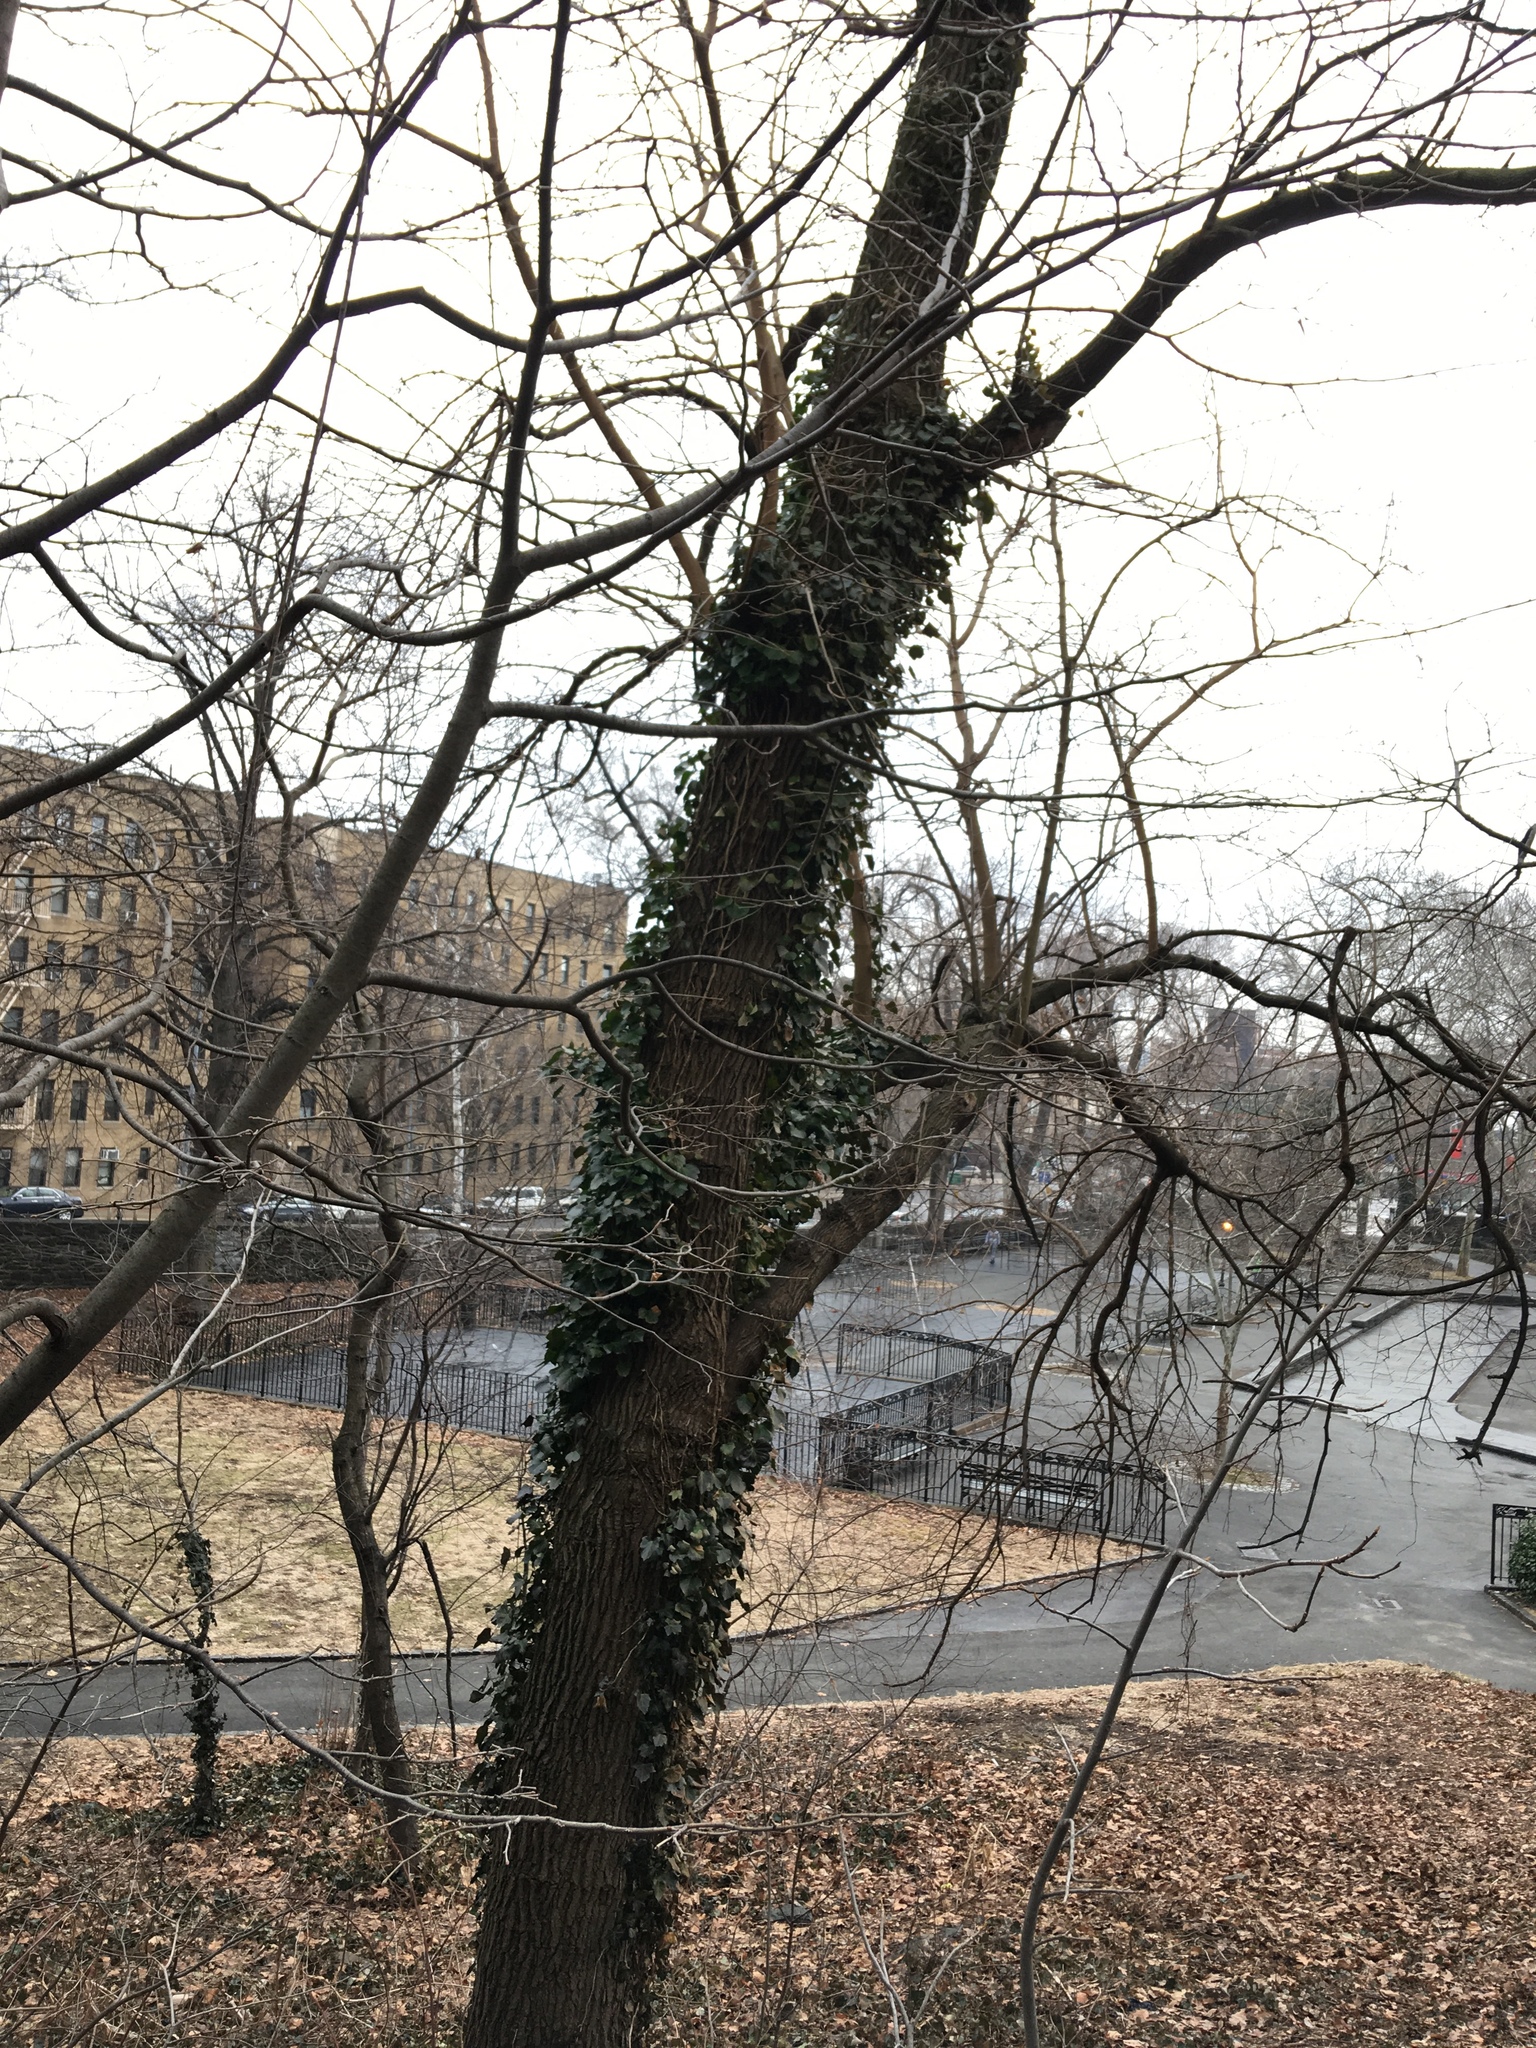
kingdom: Plantae
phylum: Tracheophyta
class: Magnoliopsida
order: Apiales
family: Araliaceae
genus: Hedera
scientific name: Hedera helix
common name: Ivy
